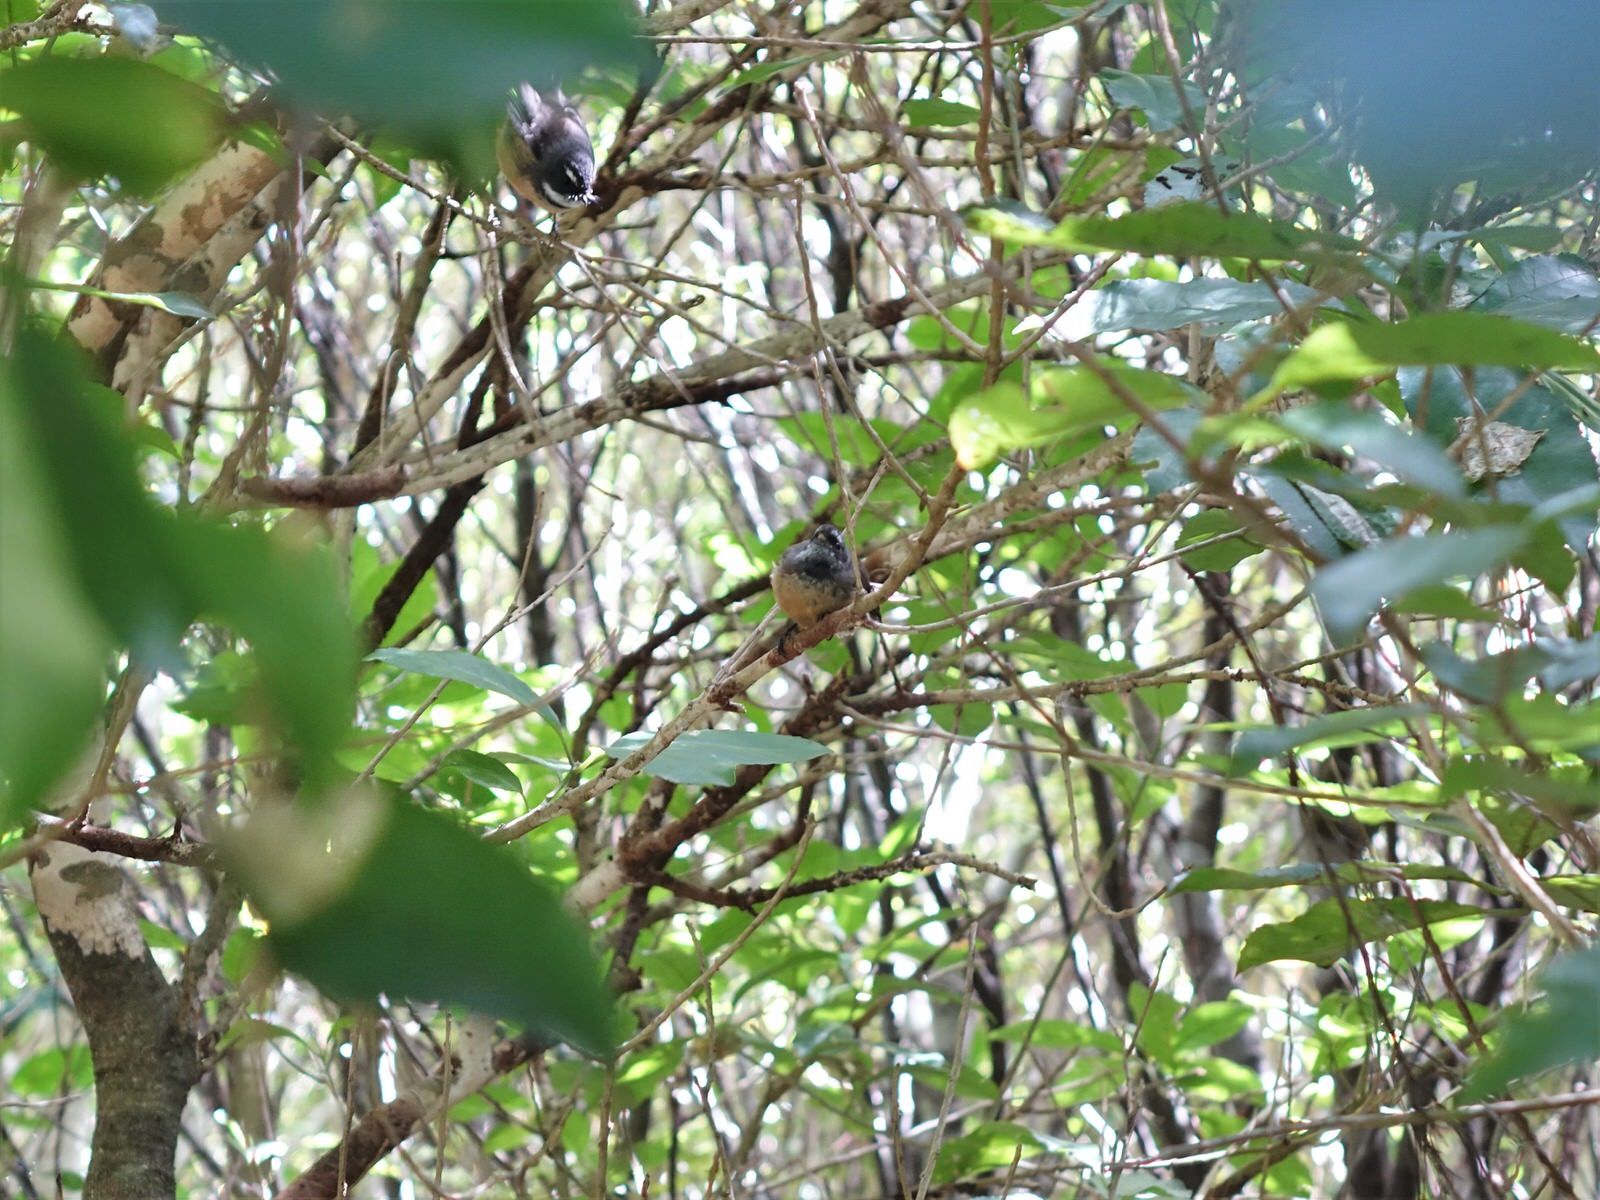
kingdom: Animalia
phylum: Chordata
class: Aves
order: Passeriformes
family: Rhipiduridae
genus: Rhipidura
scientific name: Rhipidura fuliginosa
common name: New zealand fantail
